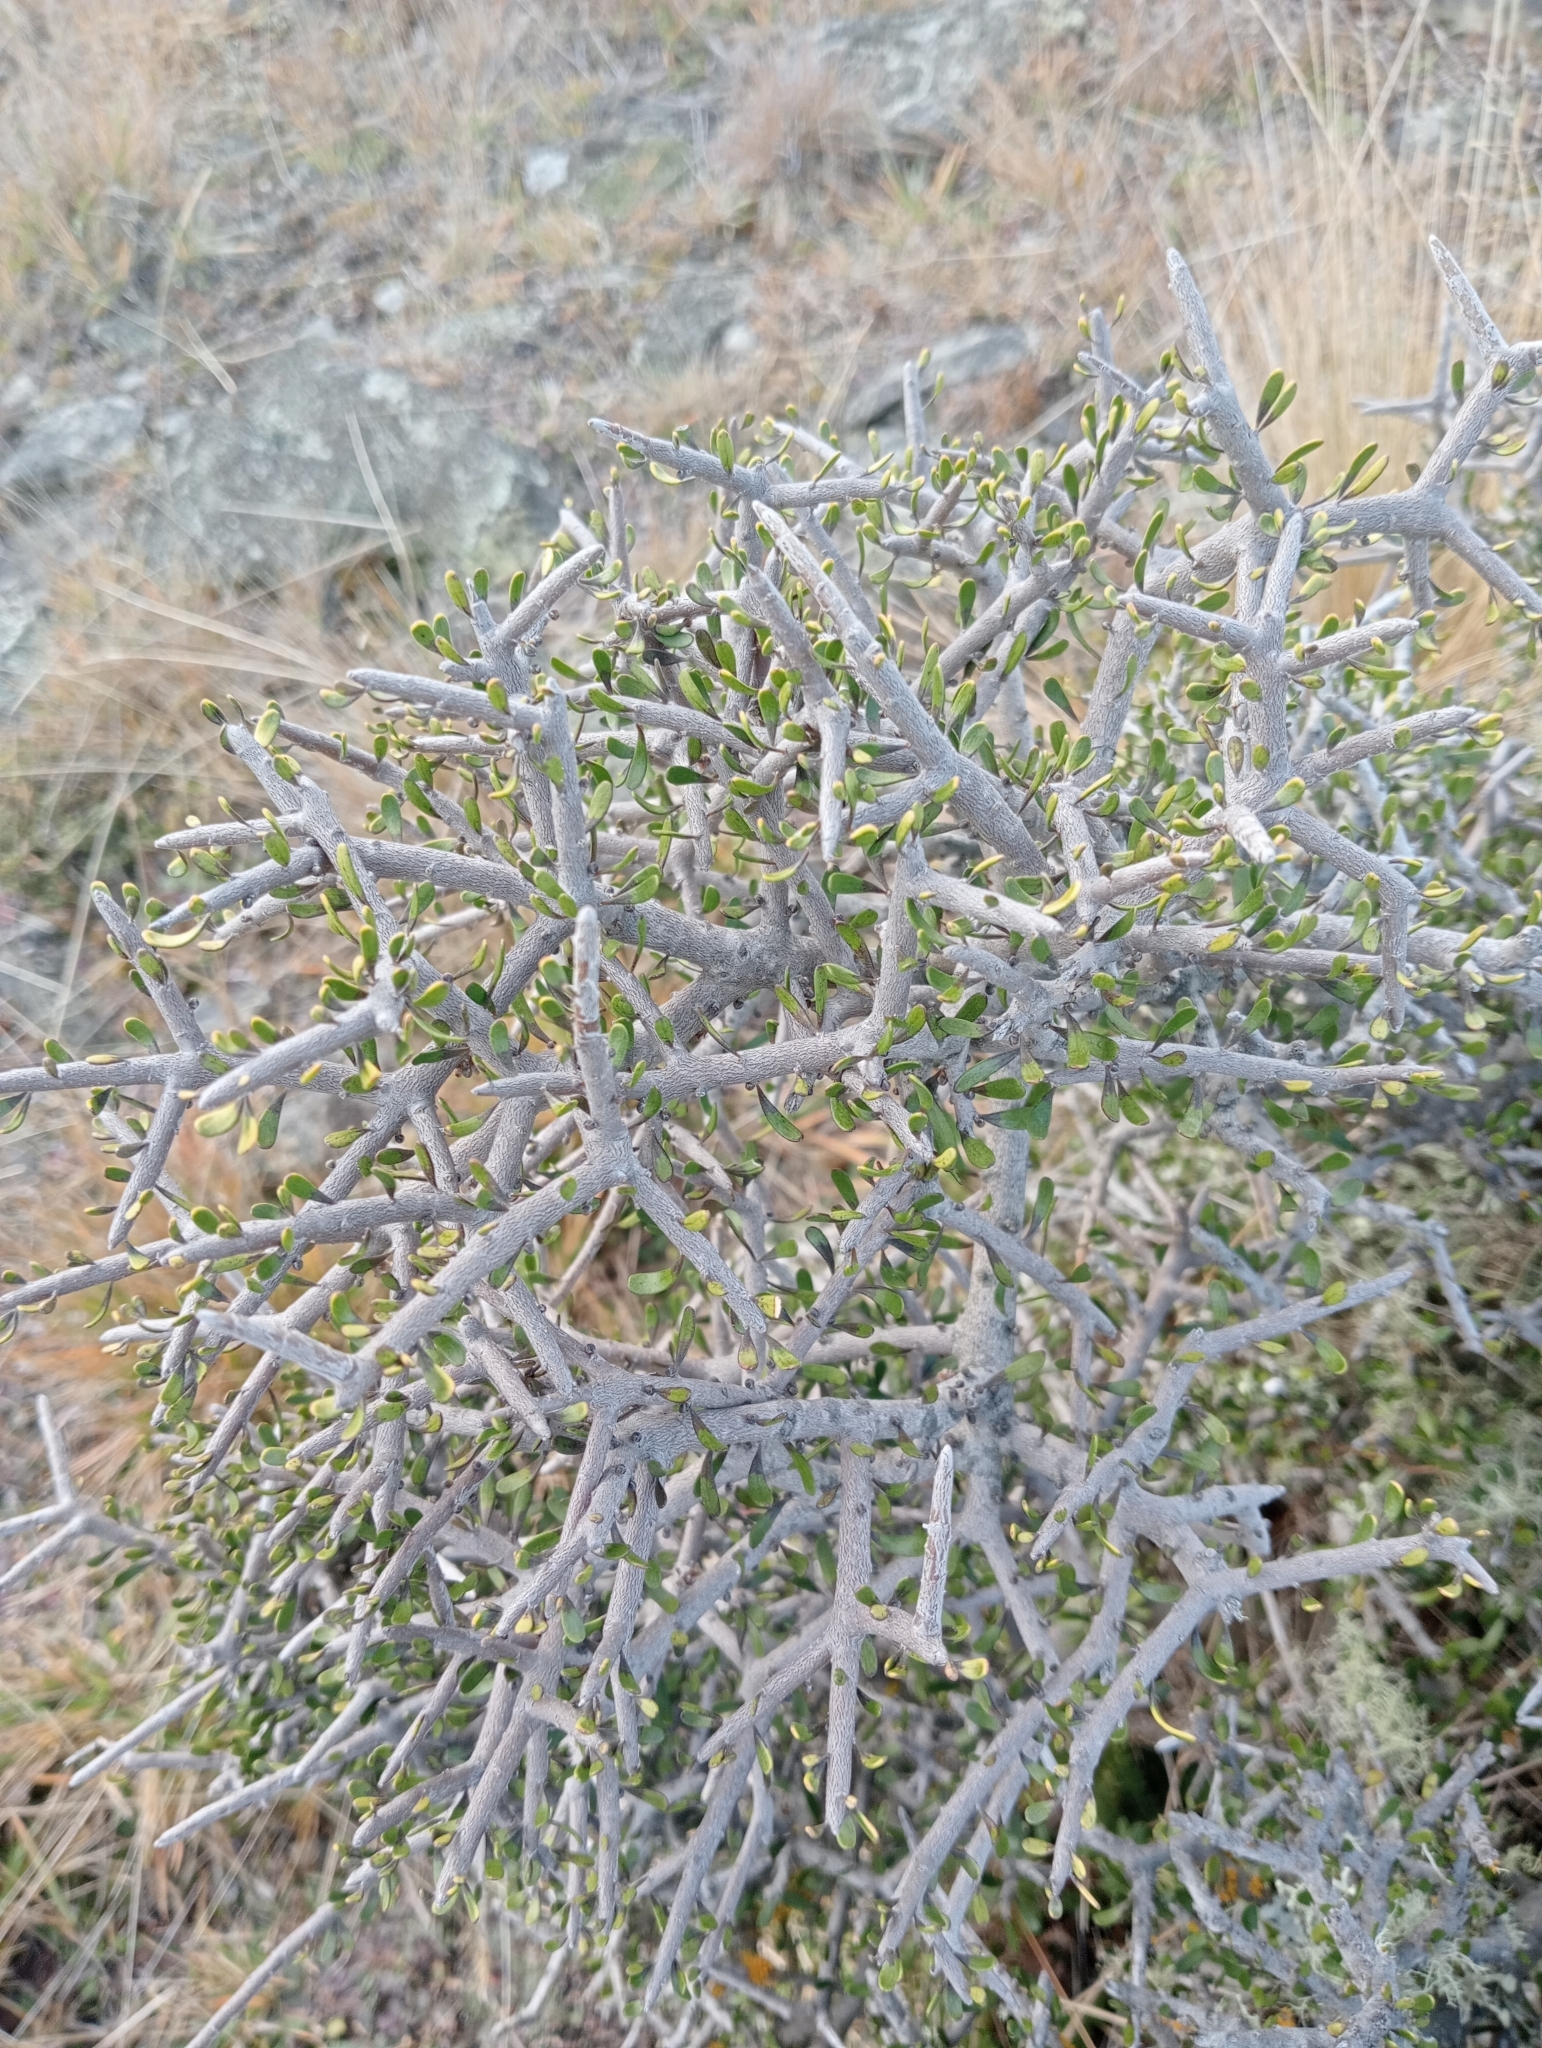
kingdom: Plantae
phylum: Tracheophyta
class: Magnoliopsida
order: Malpighiales
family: Violaceae
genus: Melicytus
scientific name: Melicytus alpinus
